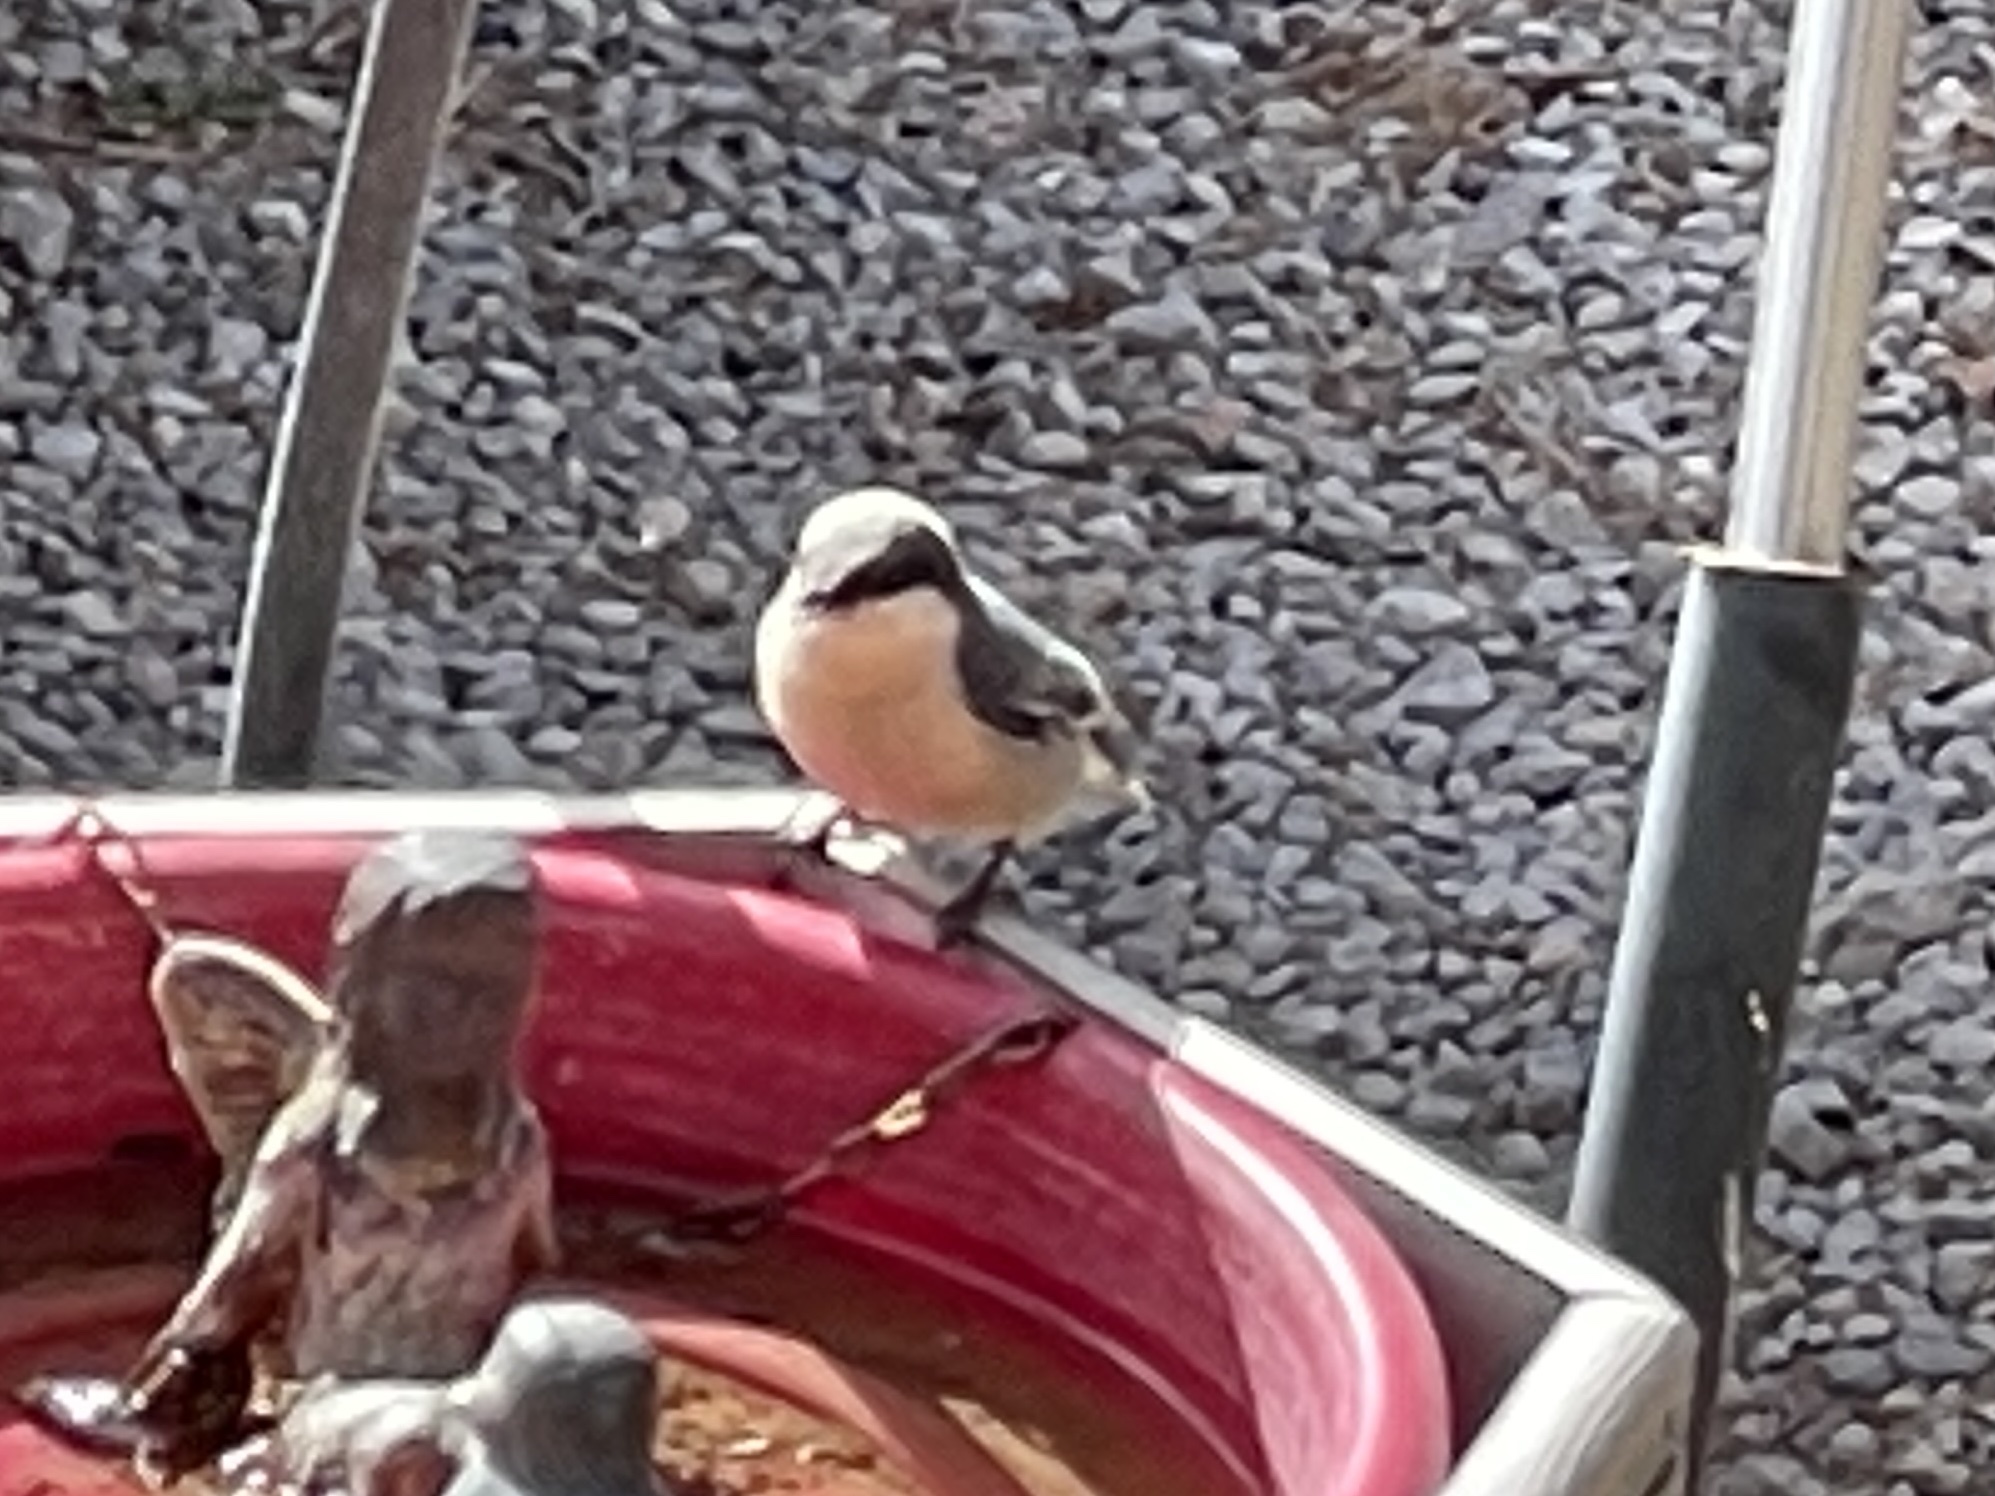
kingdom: Animalia
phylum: Chordata
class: Aves
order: Passeriformes
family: Sittidae
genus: Sitta
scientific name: Sitta pygmaea
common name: Pygmy nuthatch
